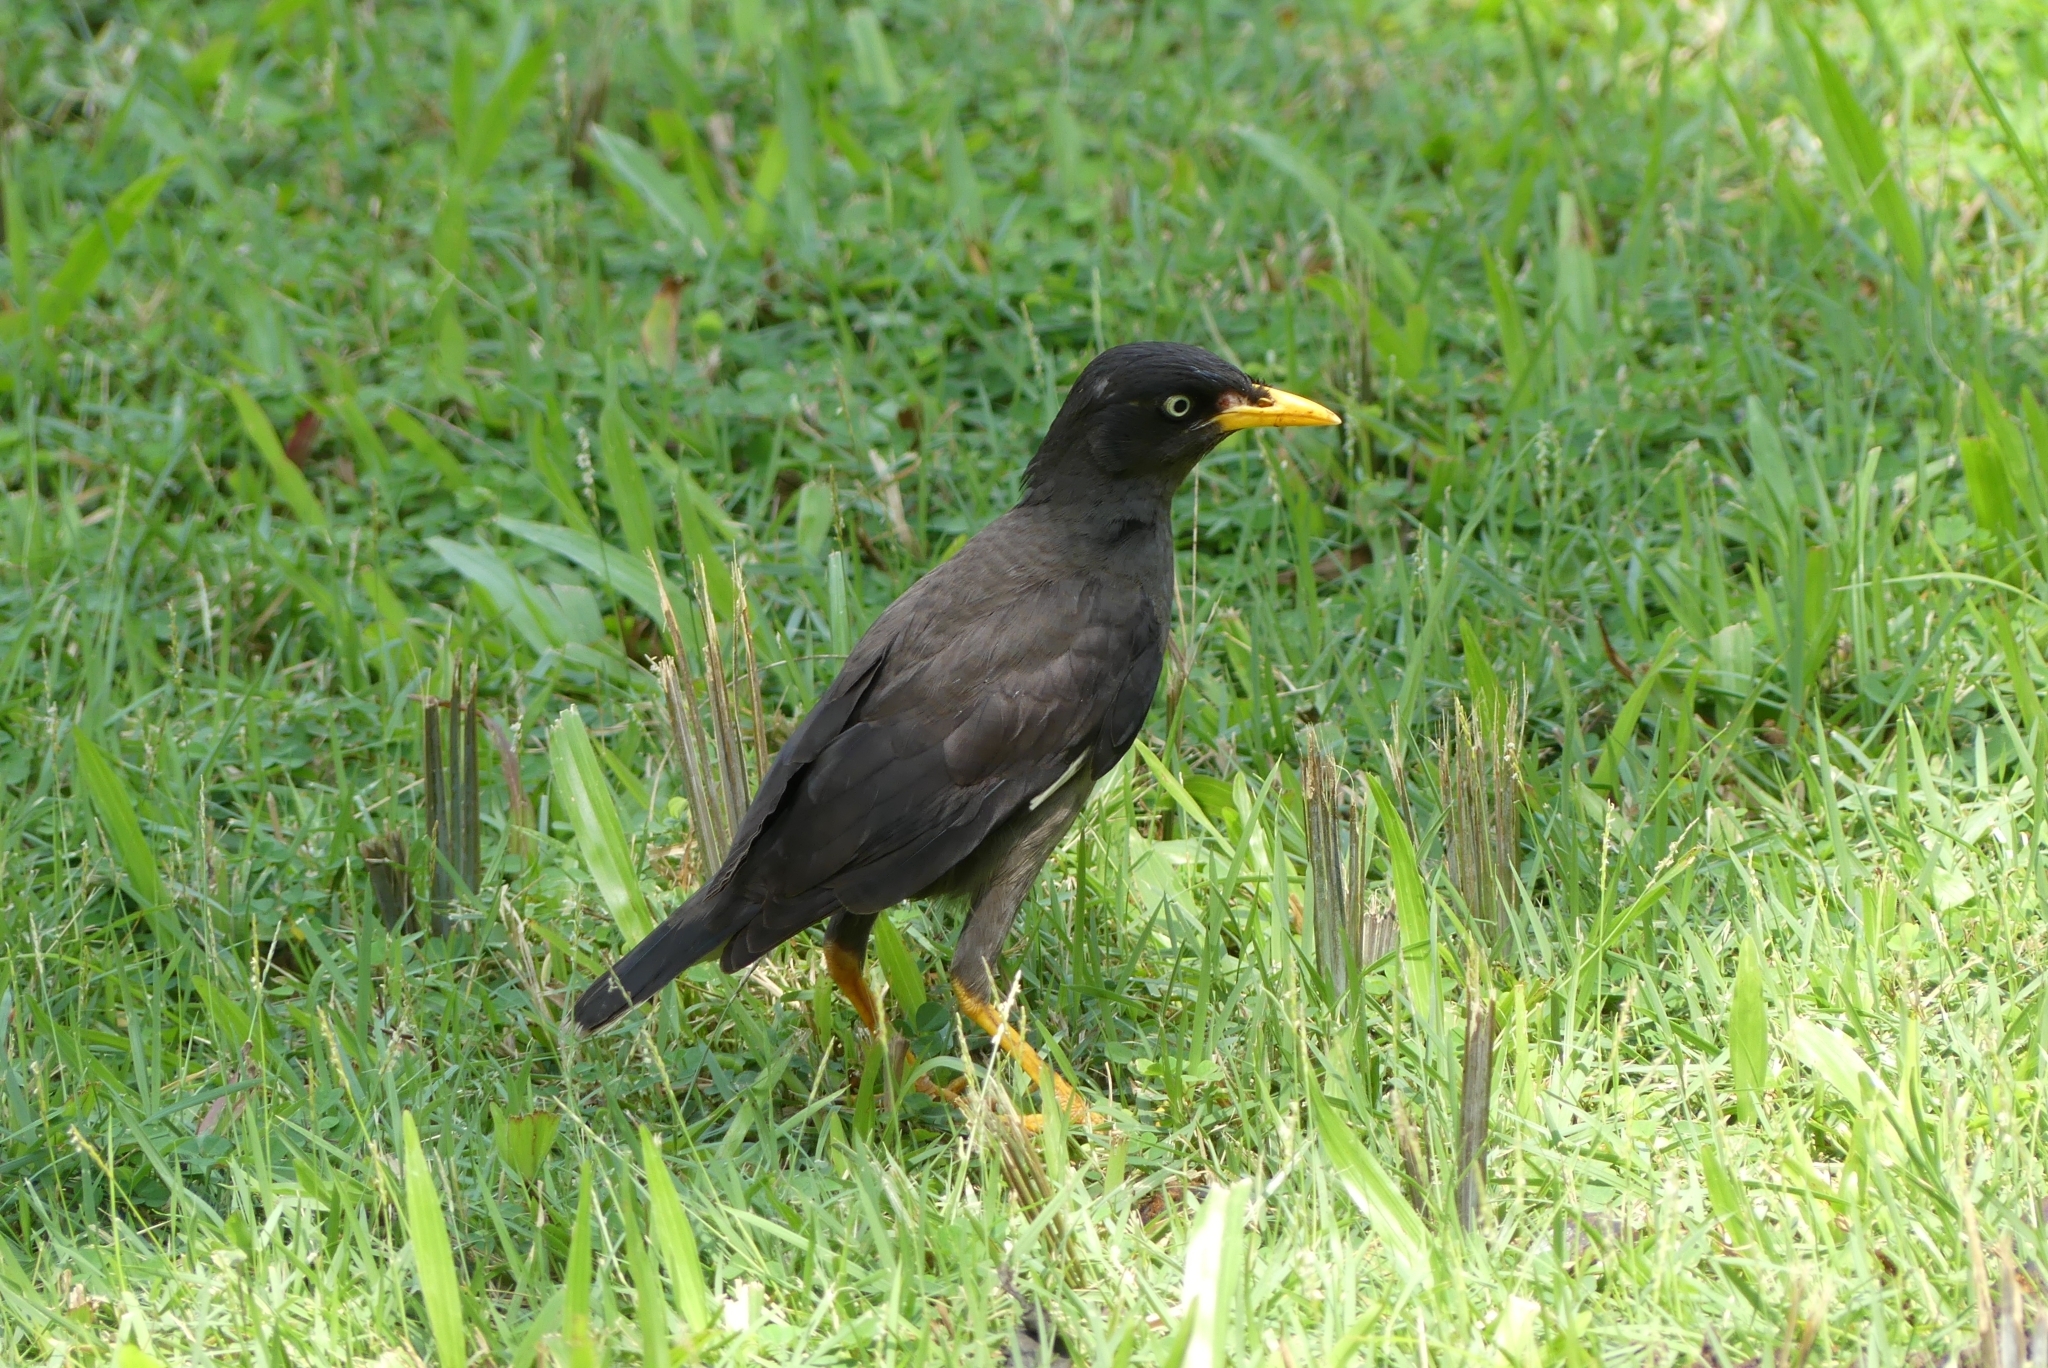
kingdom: Animalia
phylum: Chordata
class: Aves
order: Passeriformes
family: Sturnidae
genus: Acridotheres
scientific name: Acridotheres javanicus
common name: Javan myna
